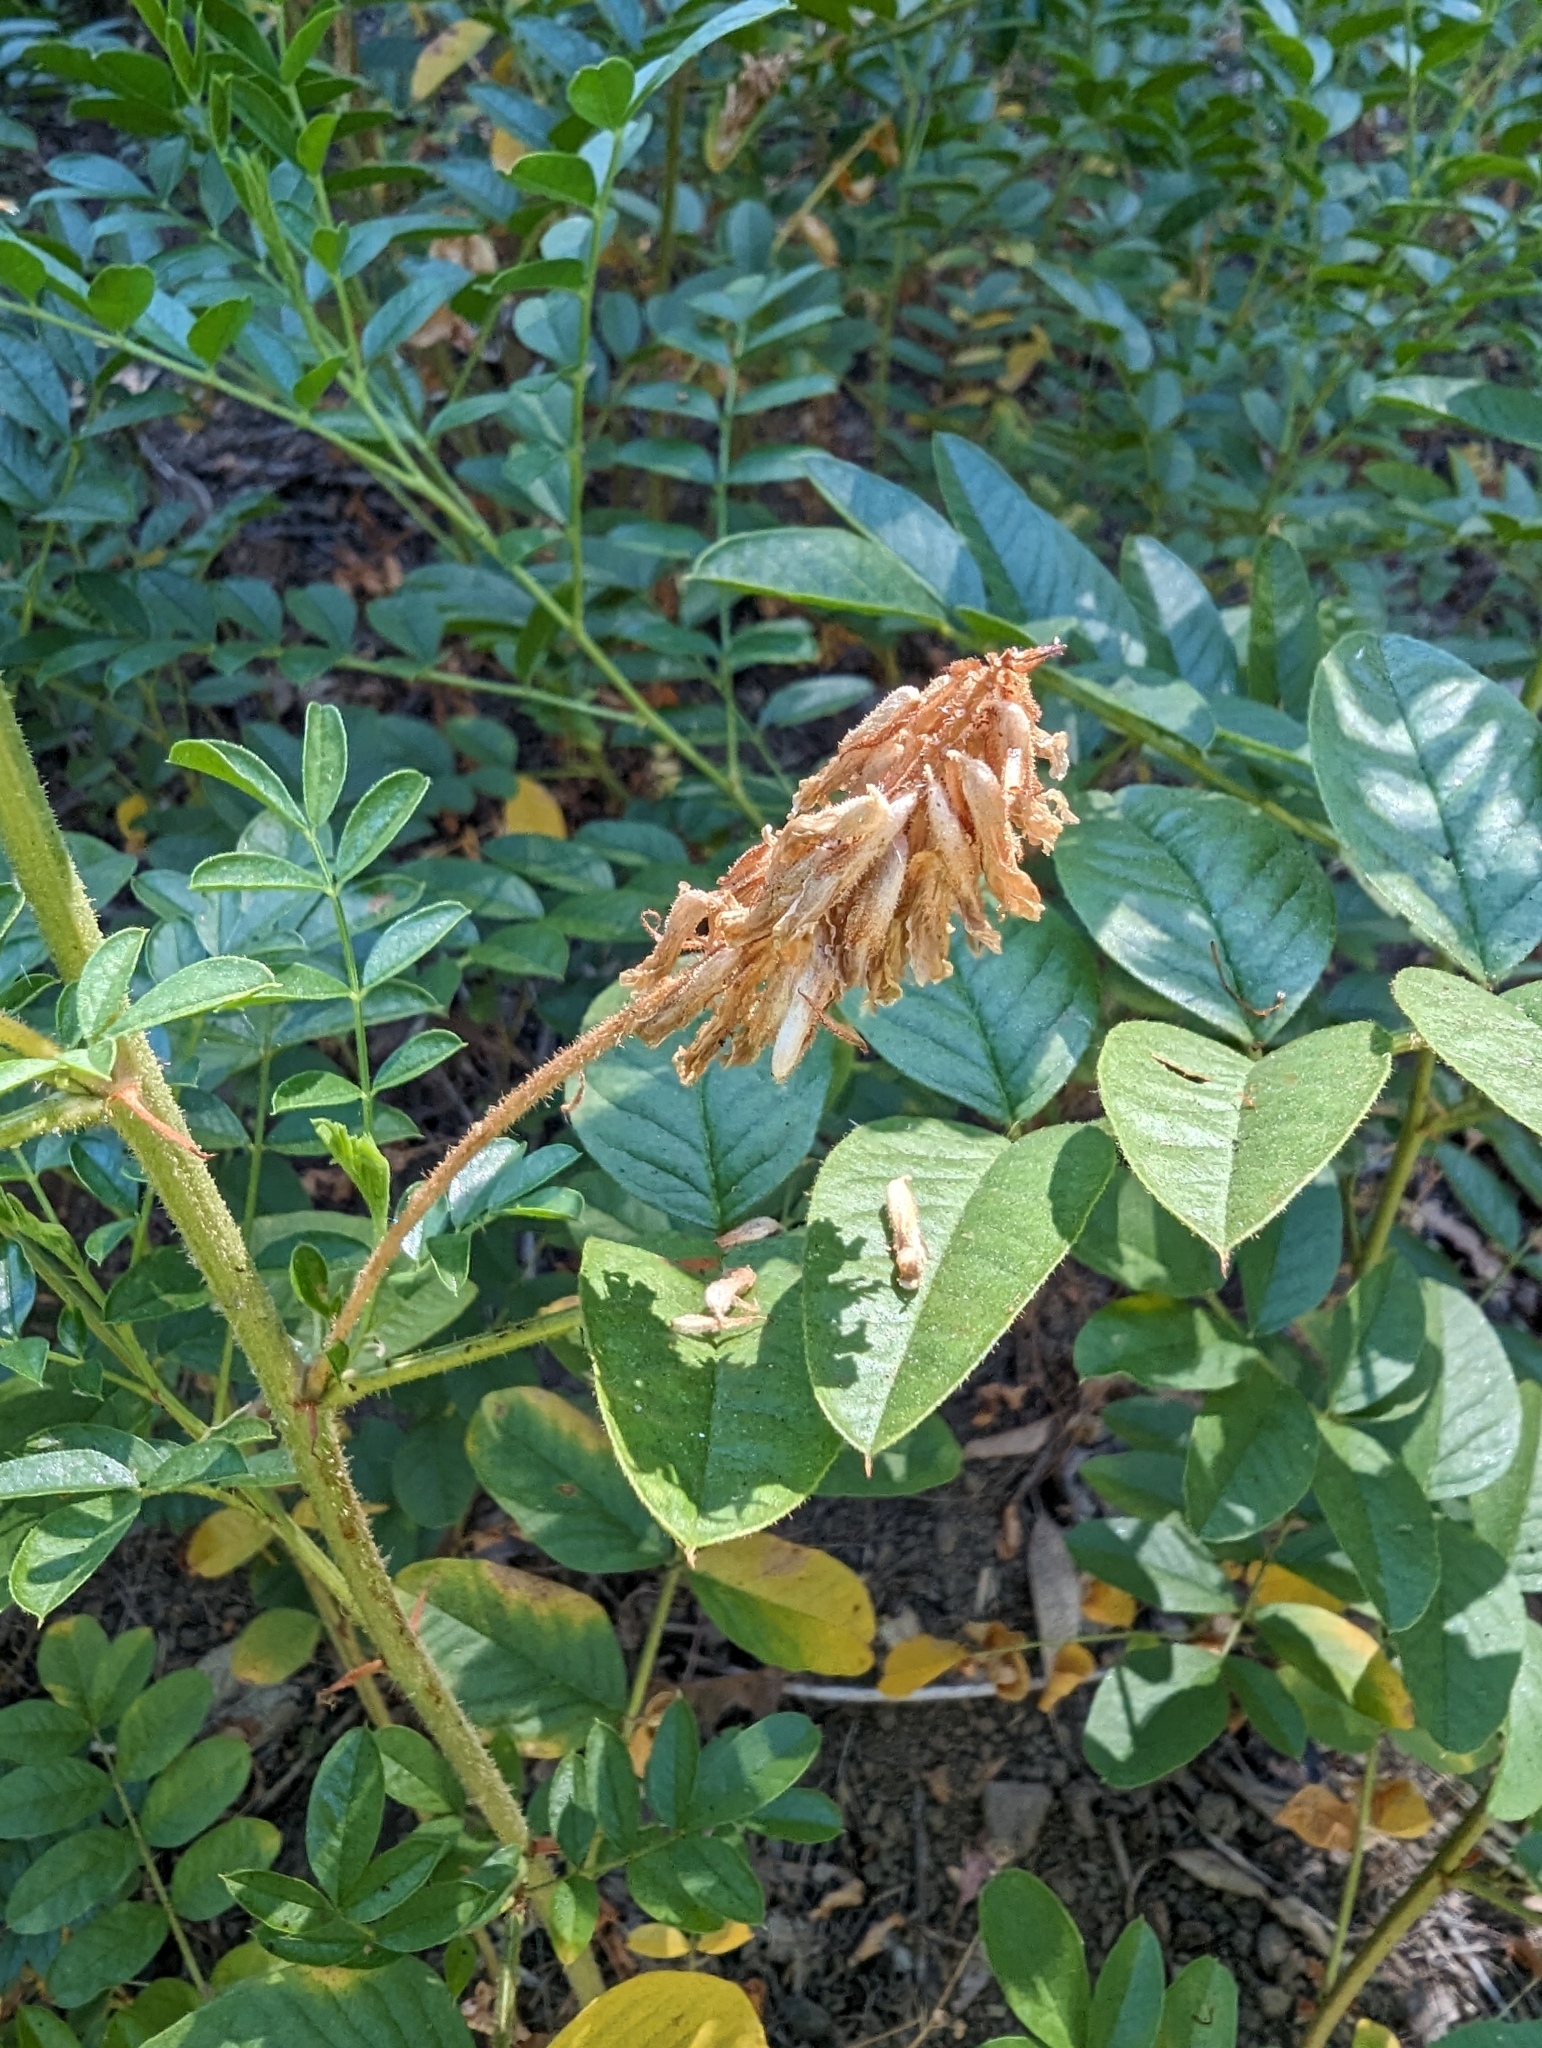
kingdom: Plantae
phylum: Tracheophyta
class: Magnoliopsida
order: Fabales
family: Fabaceae
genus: Glycyrrhiza
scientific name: Glycyrrhiza lepidota
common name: American liquorice
